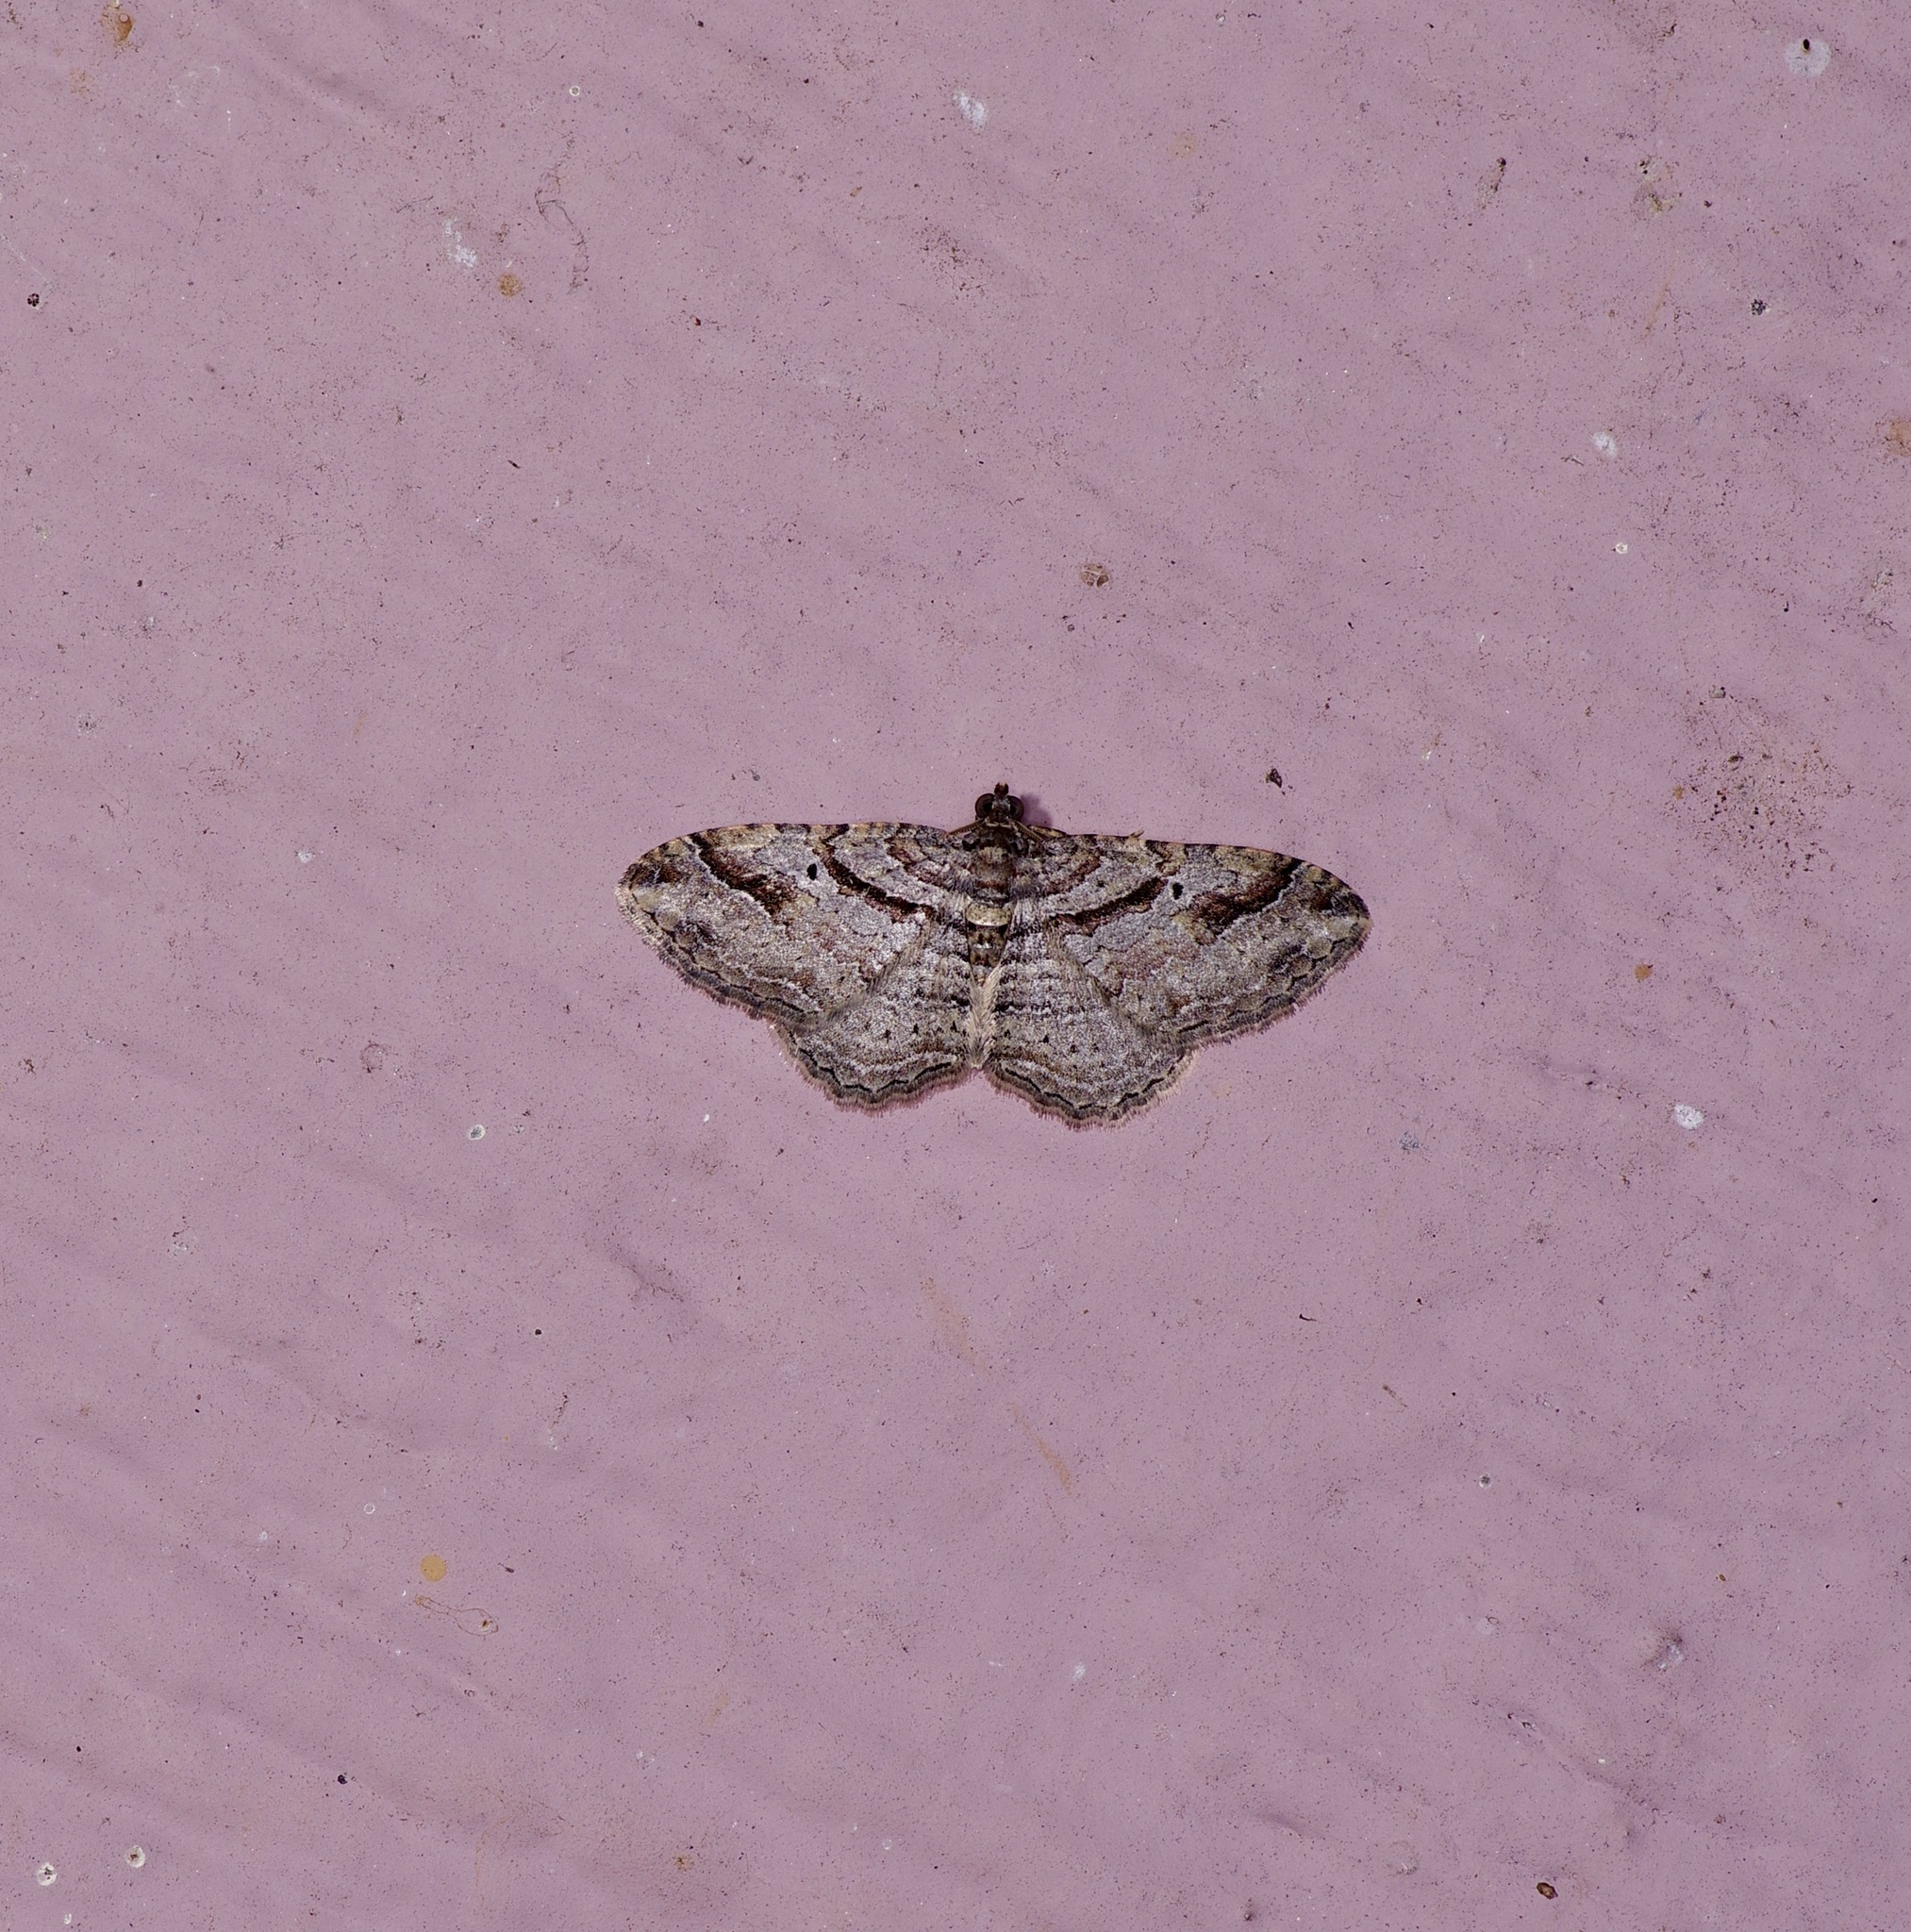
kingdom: Animalia
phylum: Arthropoda
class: Insecta
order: Lepidoptera
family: Geometridae
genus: Costaconvexa
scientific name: Costaconvexa centrostrigaria
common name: Bent-line carpet
